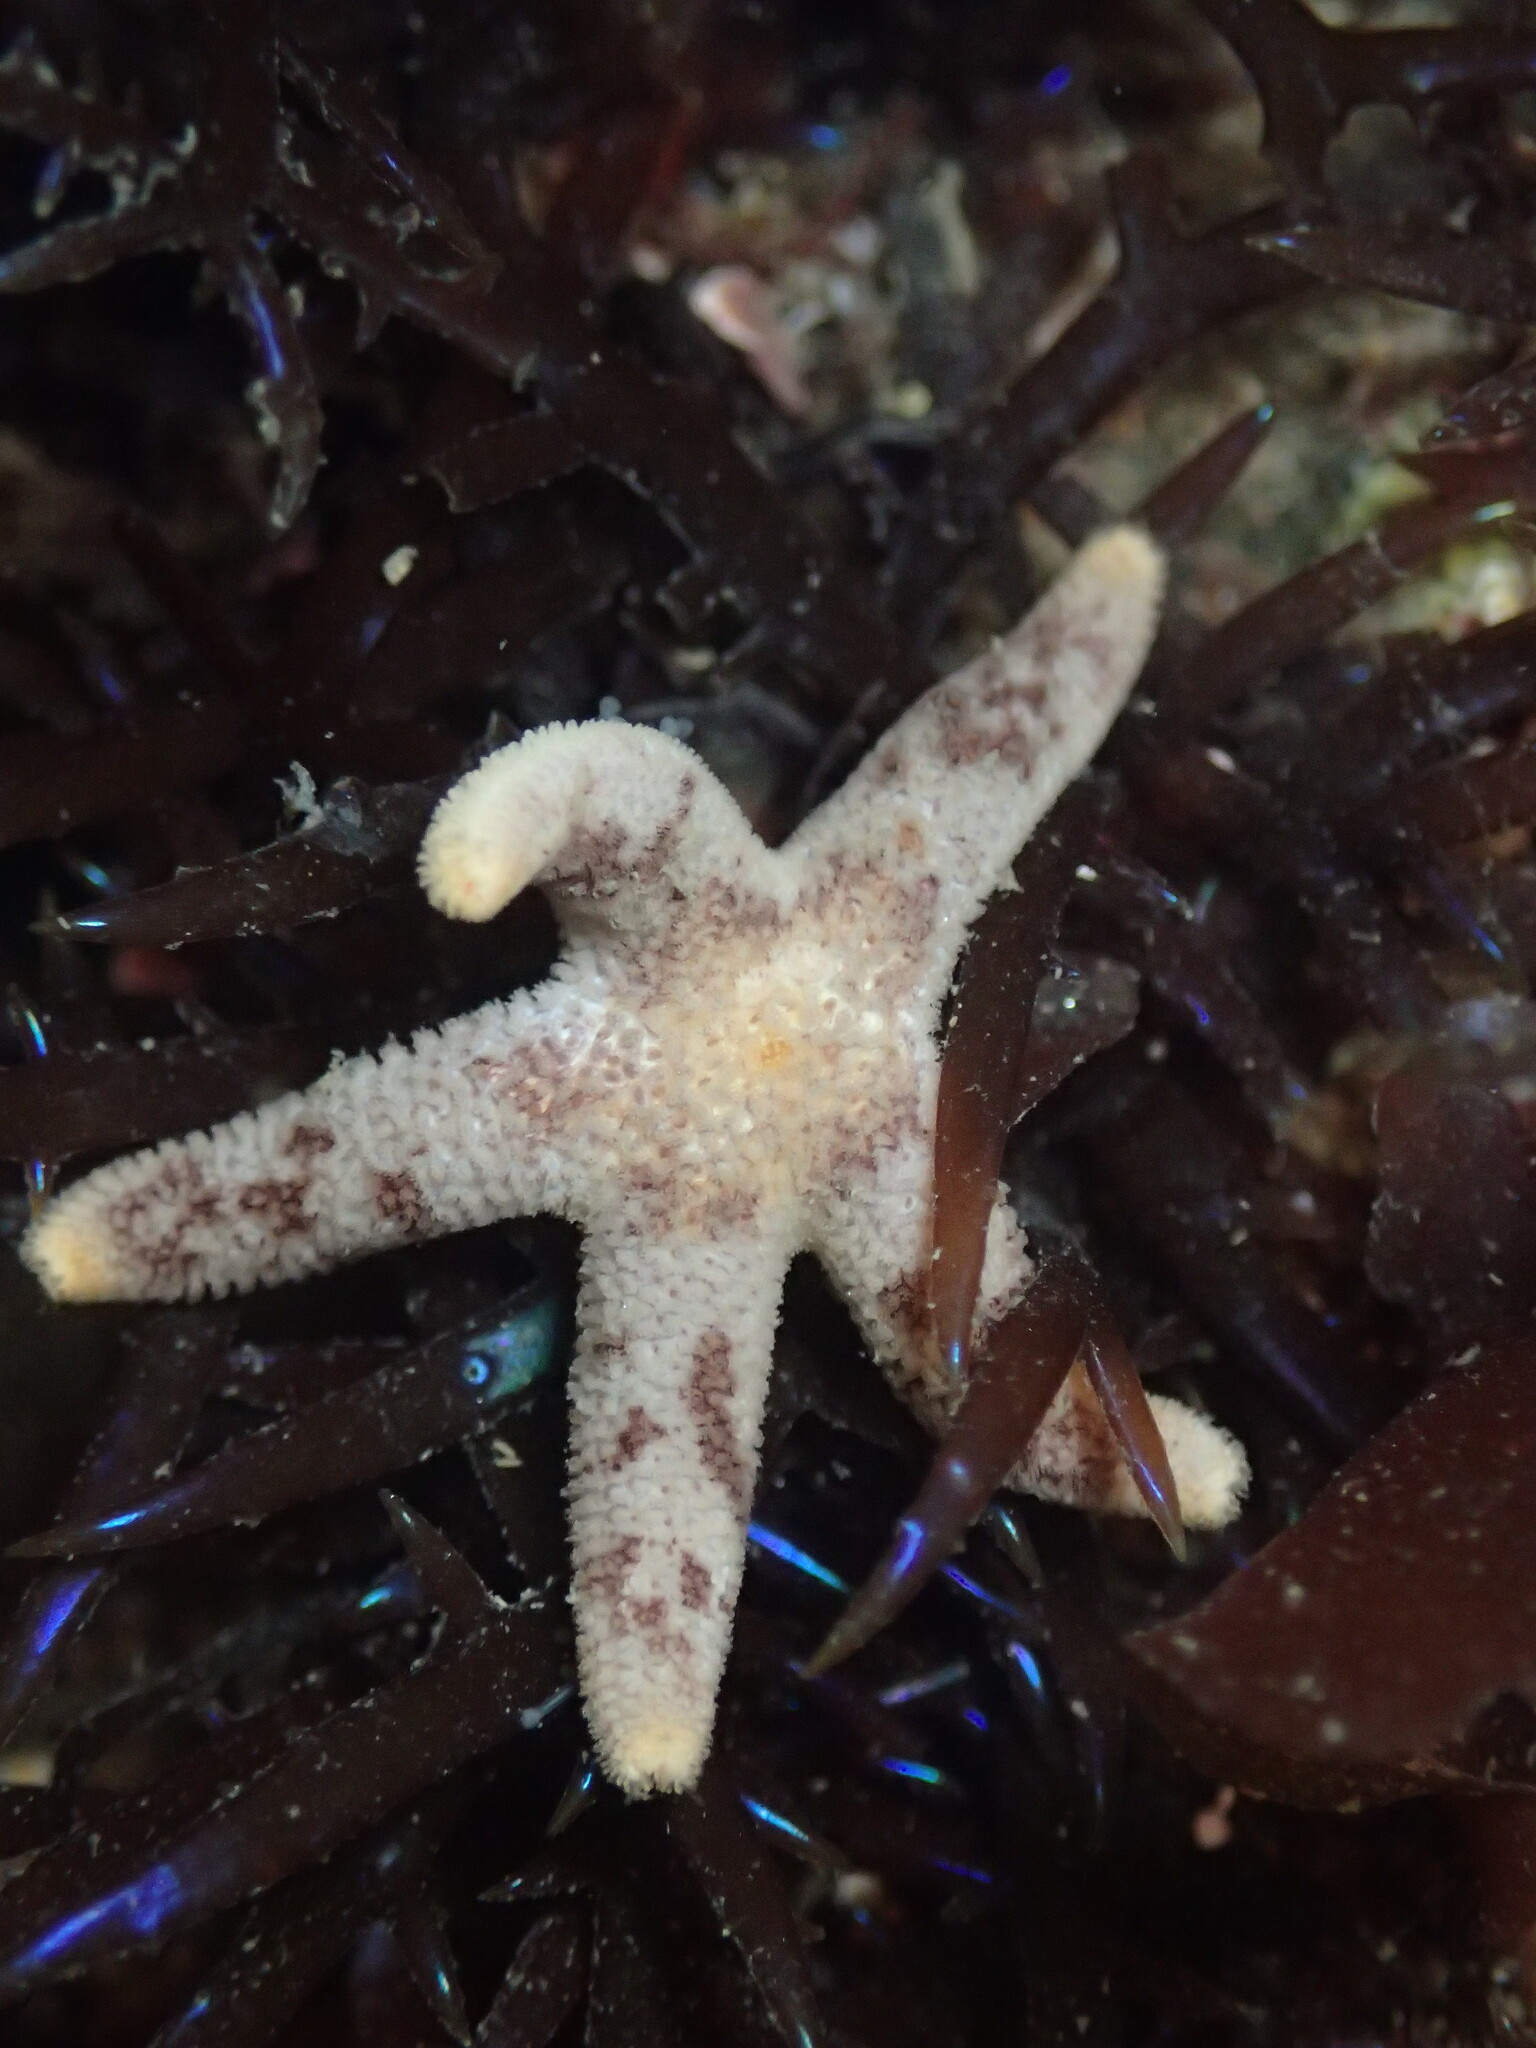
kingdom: Animalia
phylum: Echinodermata
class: Asteroidea
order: Spinulosida
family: Echinasteridae
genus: Henricia
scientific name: Henricia pumila
